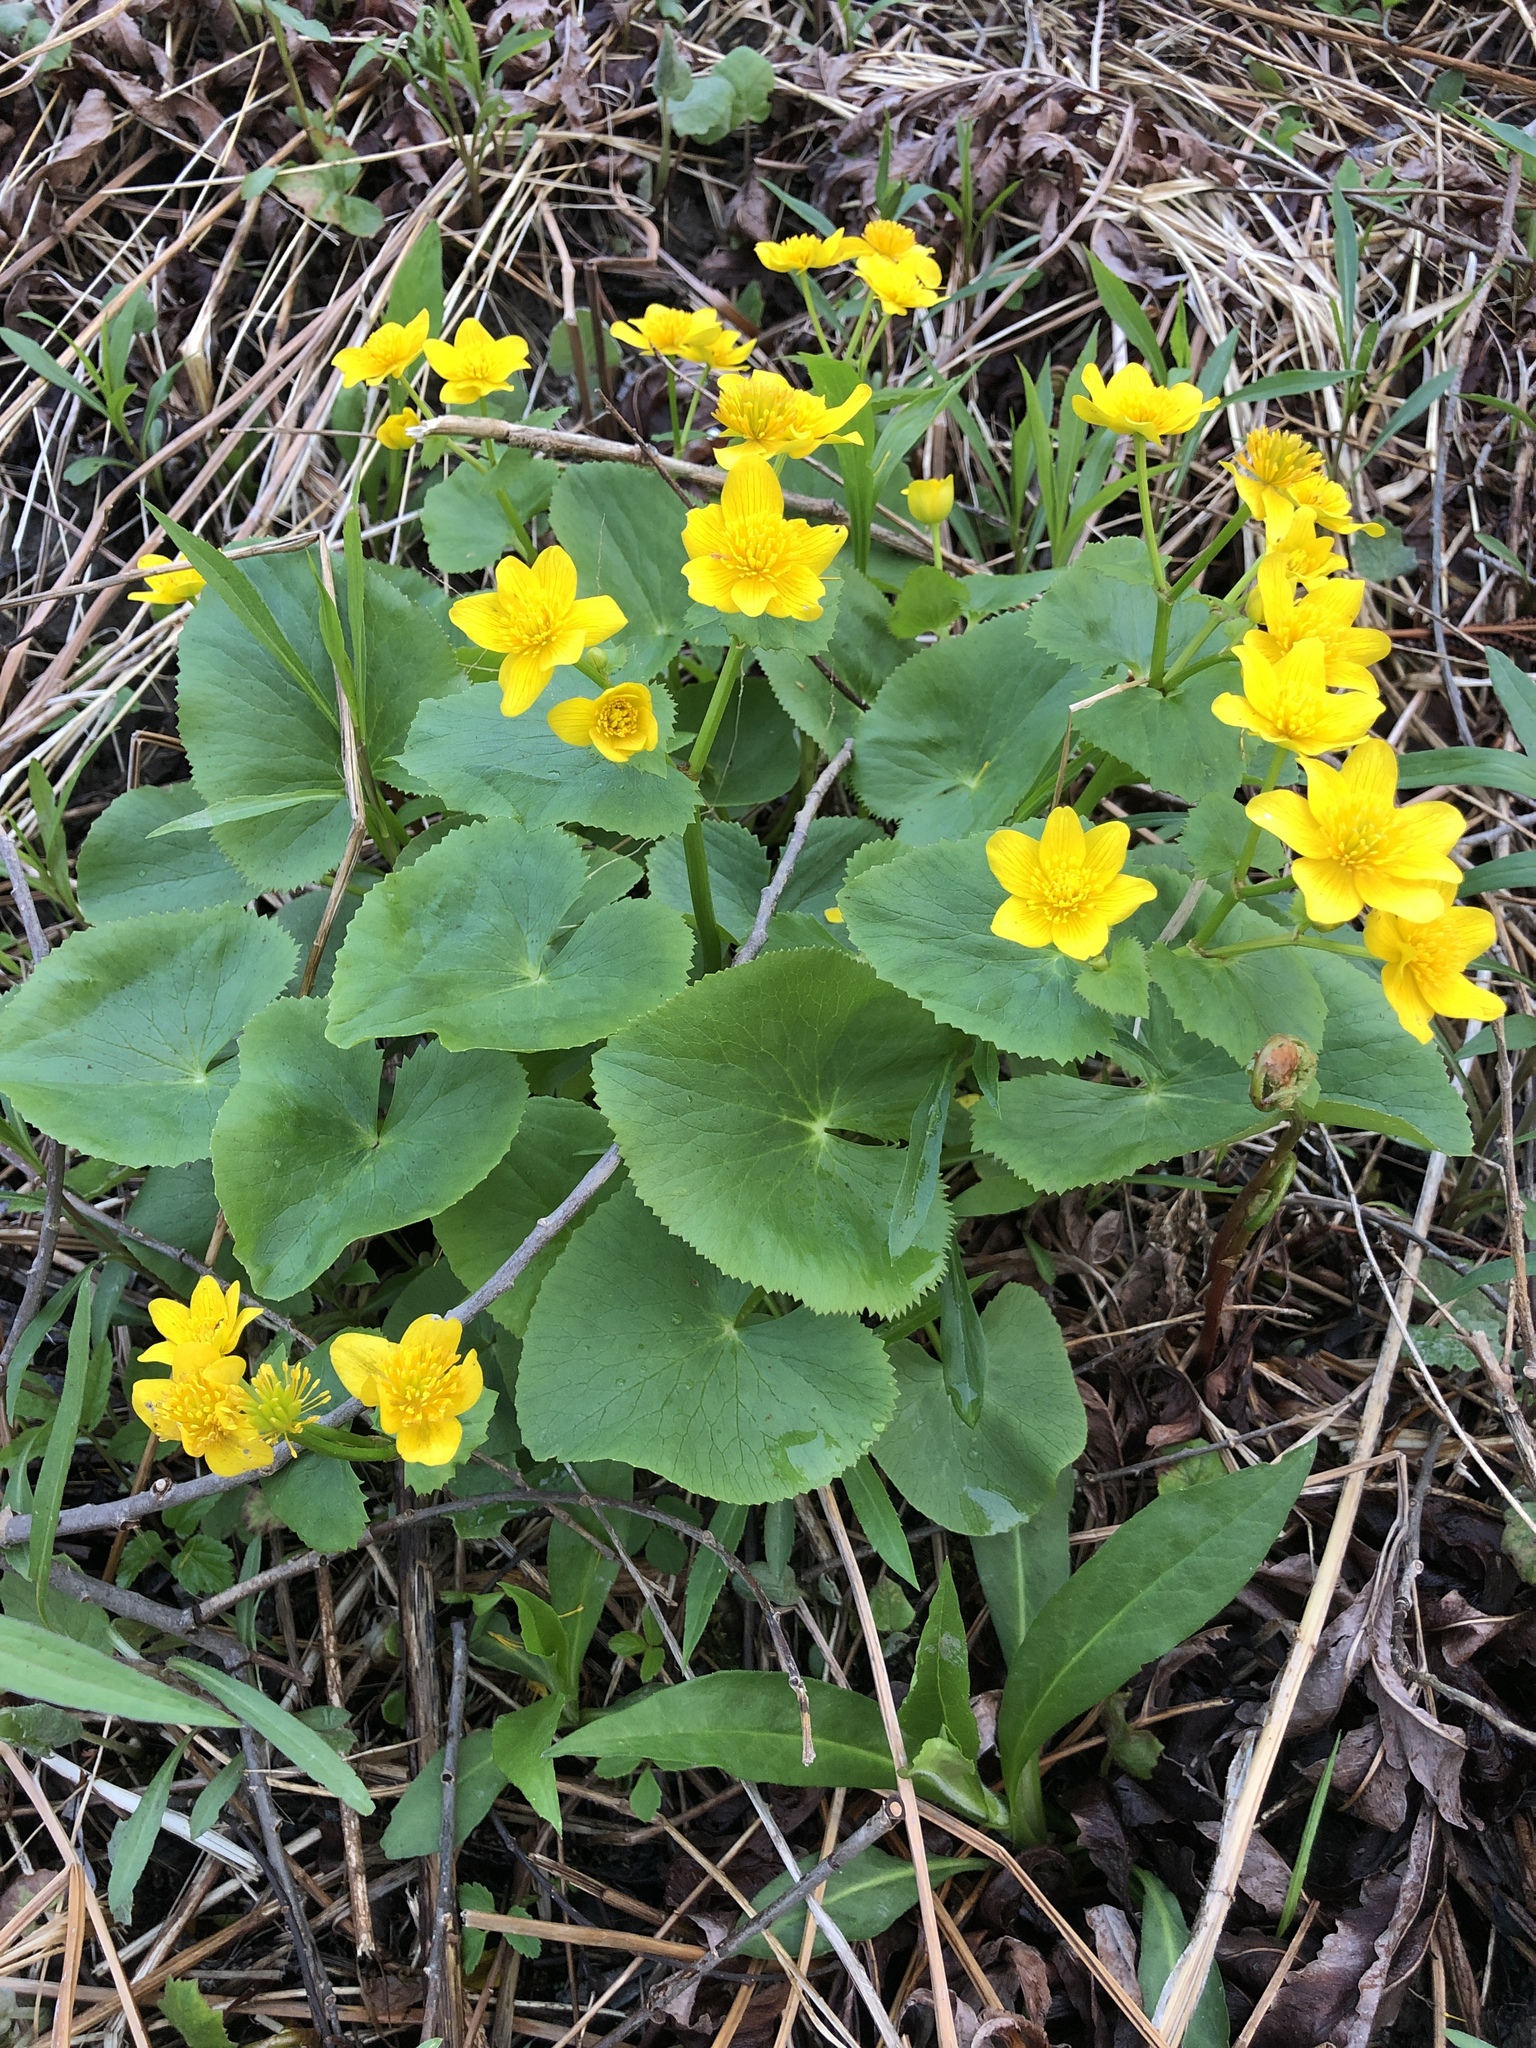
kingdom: Plantae
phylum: Tracheophyta
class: Magnoliopsida
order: Ranunculales
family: Ranunculaceae
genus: Caltha
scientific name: Caltha palustris
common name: Marsh marigold
